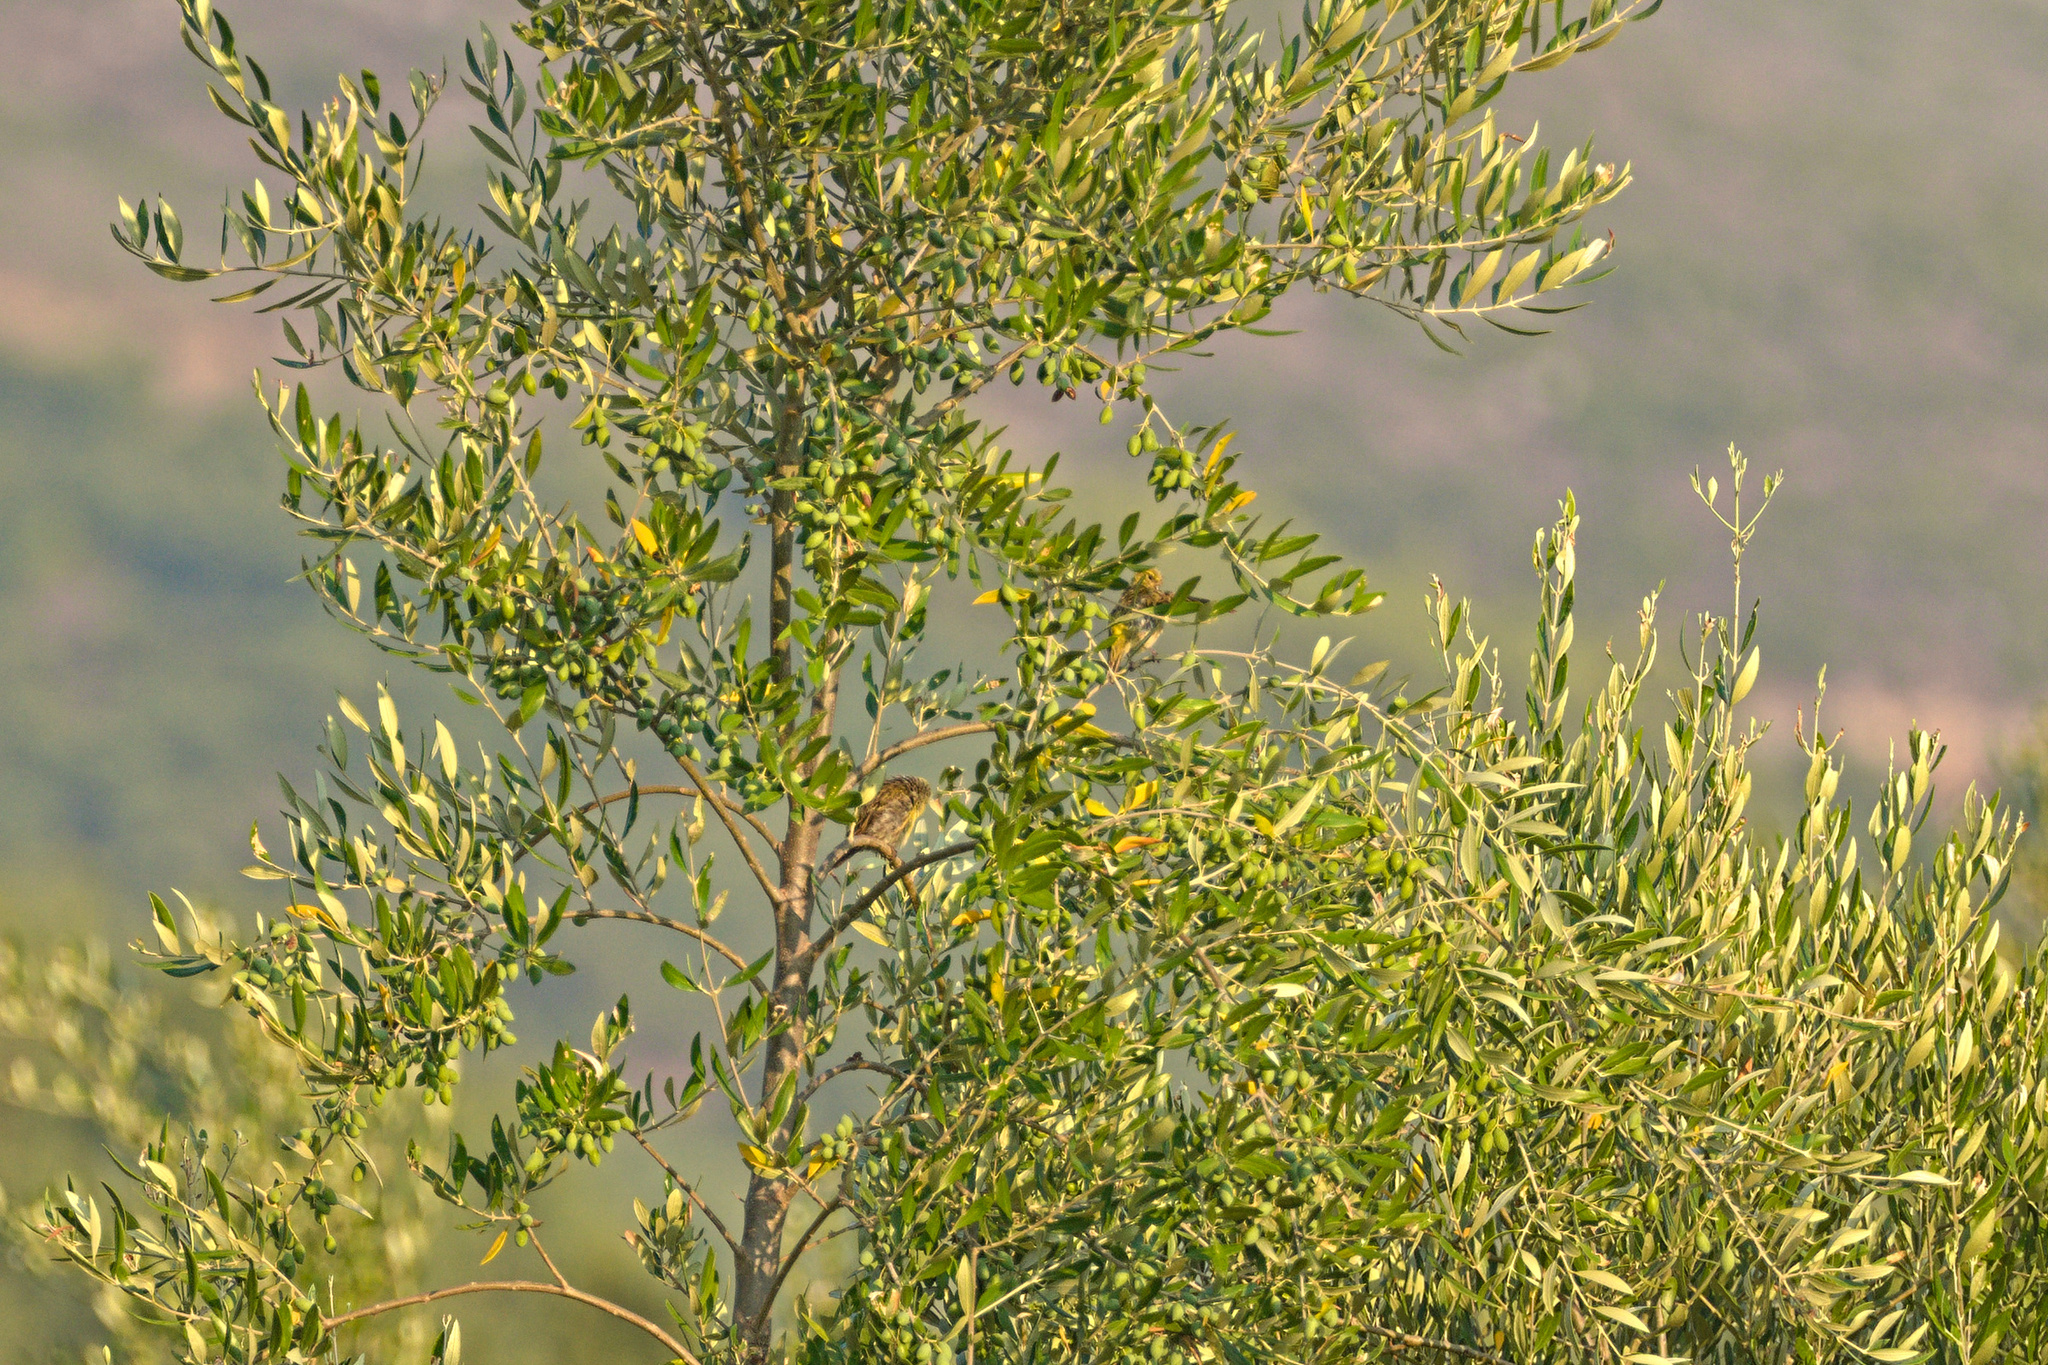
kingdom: Animalia
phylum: Chordata
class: Aves
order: Passeriformes
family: Fringillidae
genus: Serinus
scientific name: Serinus serinus
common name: European serin
